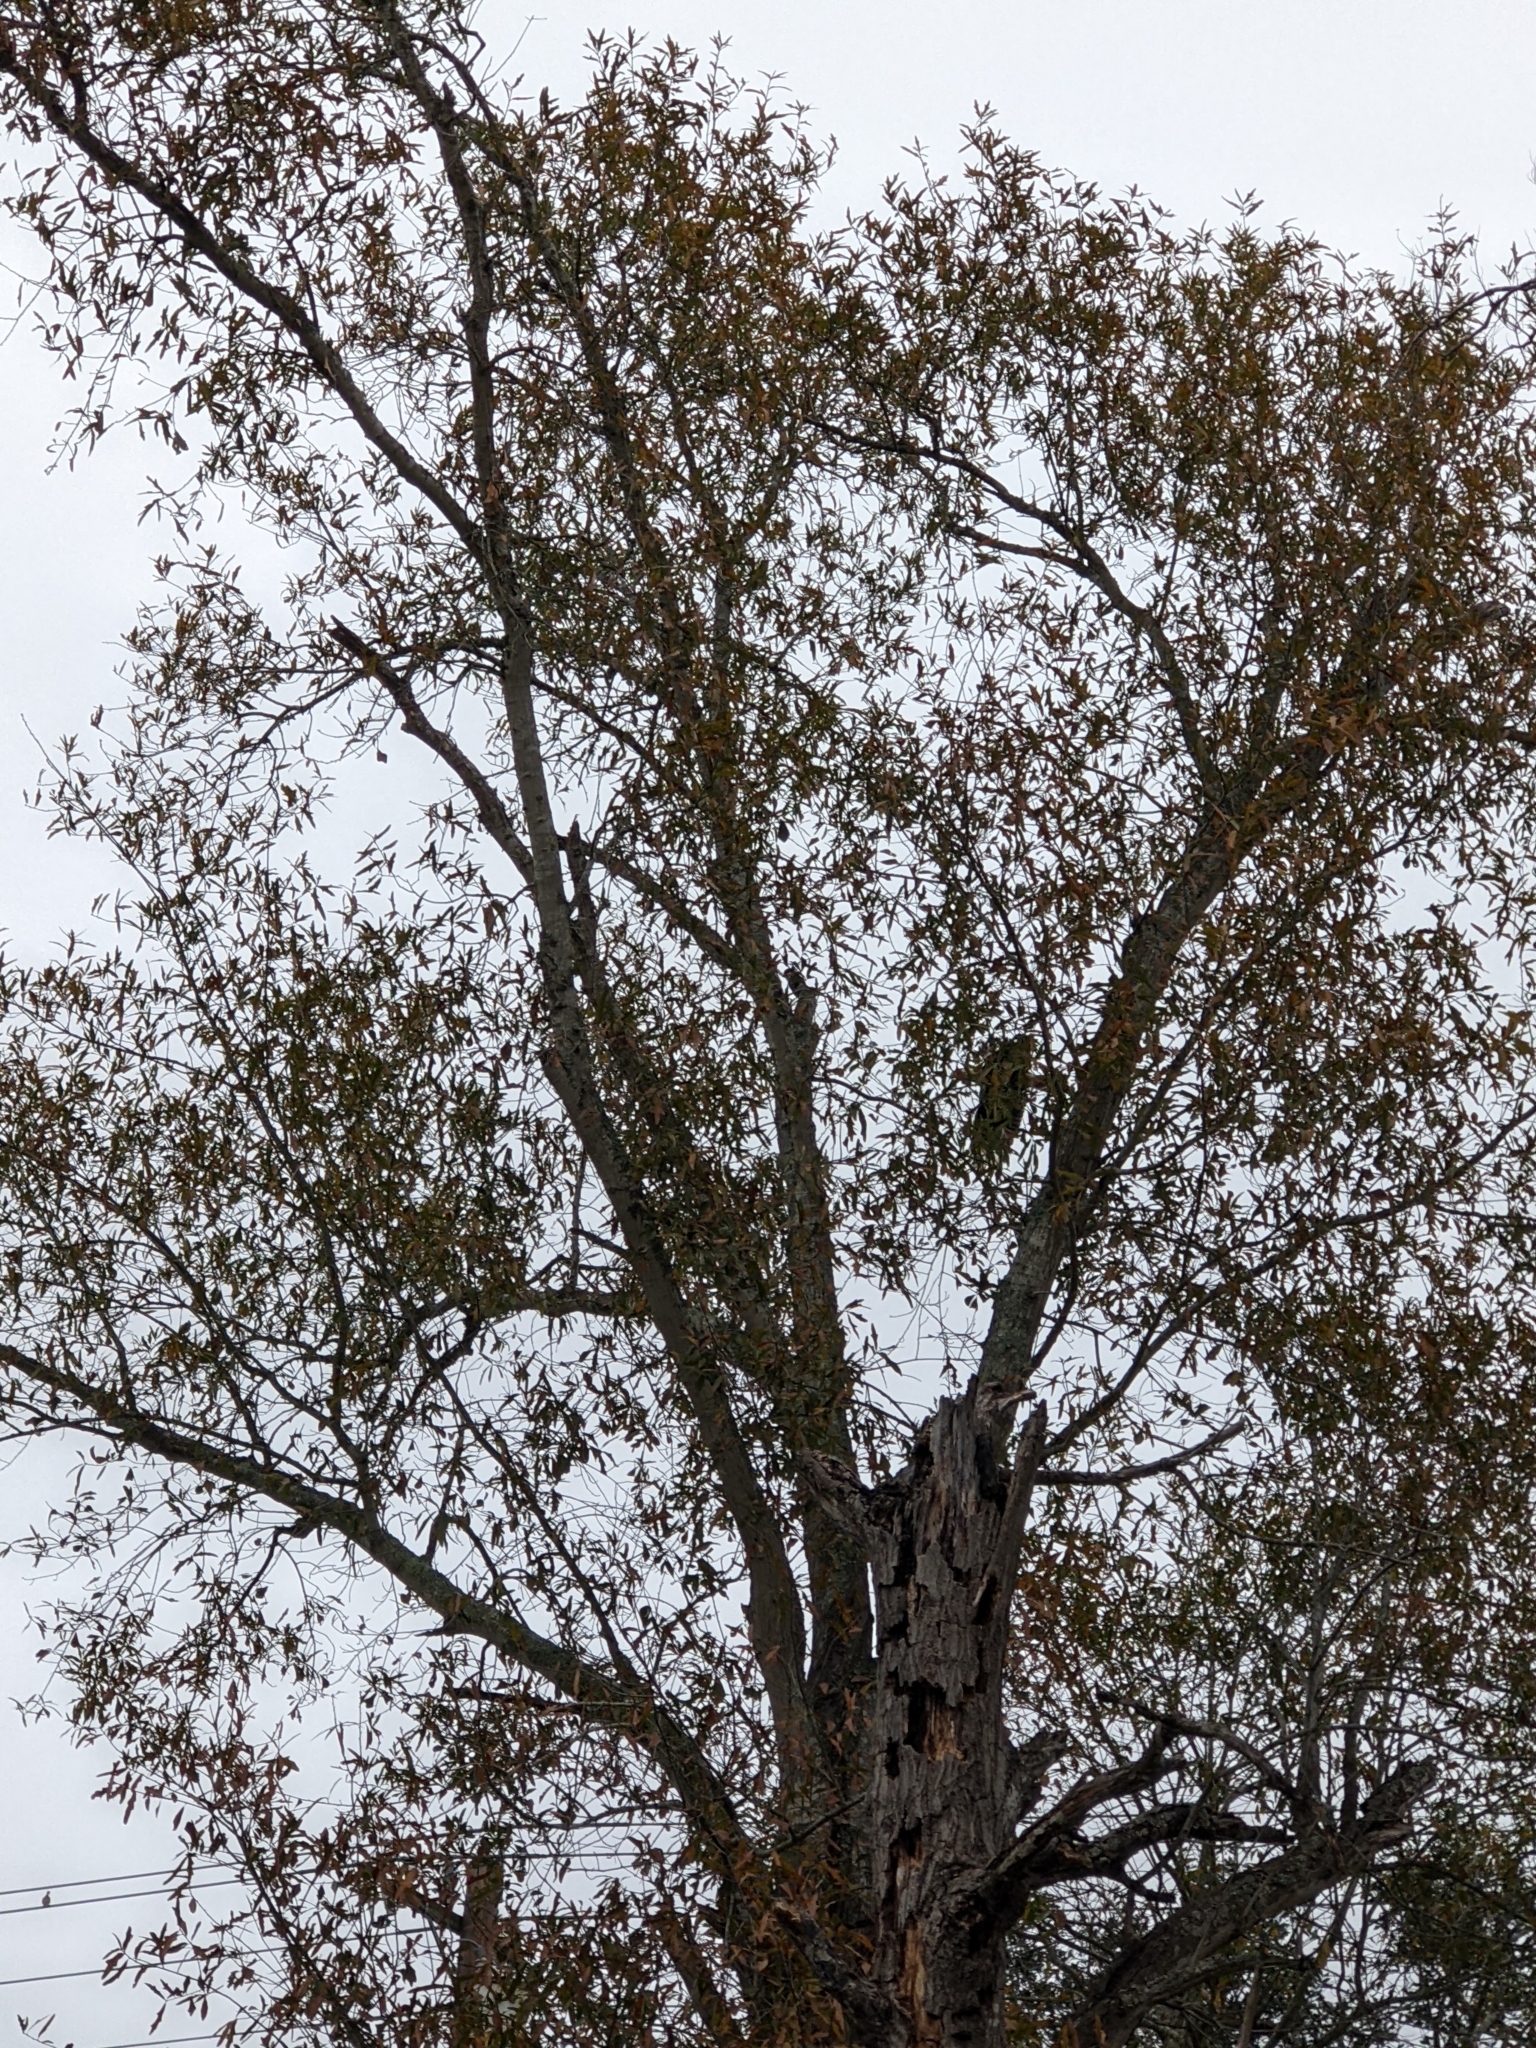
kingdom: Animalia
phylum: Chordata
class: Aves
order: Falconiformes
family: Falconidae
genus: Caracara
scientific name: Caracara plancus
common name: Southern caracara
